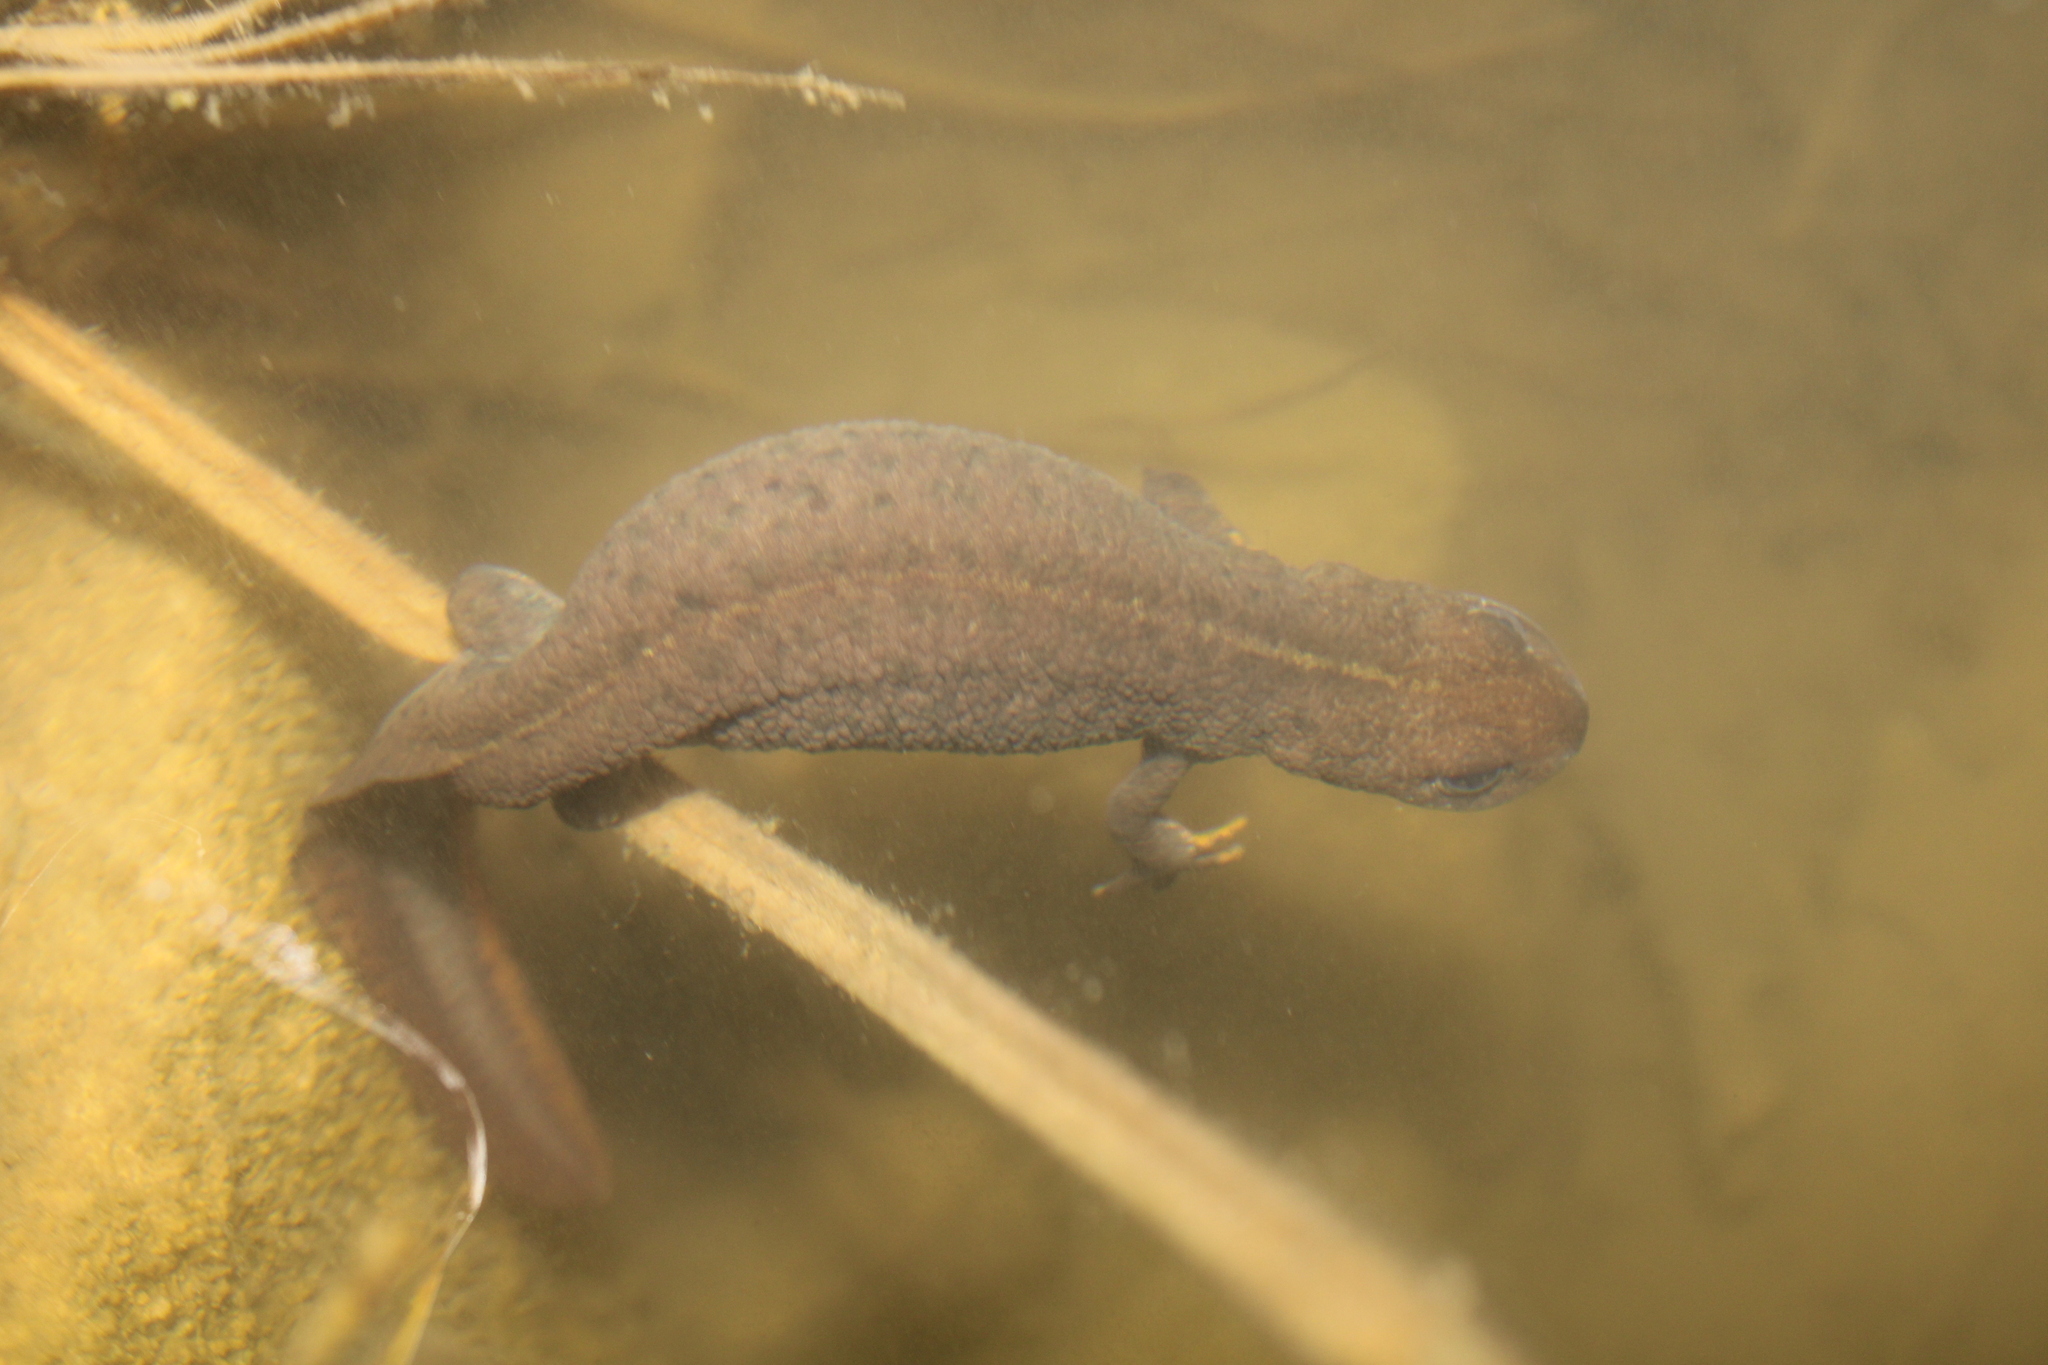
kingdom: Animalia
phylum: Chordata
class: Amphibia
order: Caudata
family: Salamandridae
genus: Triturus
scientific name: Triturus carnifex
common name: Italian crested newt
